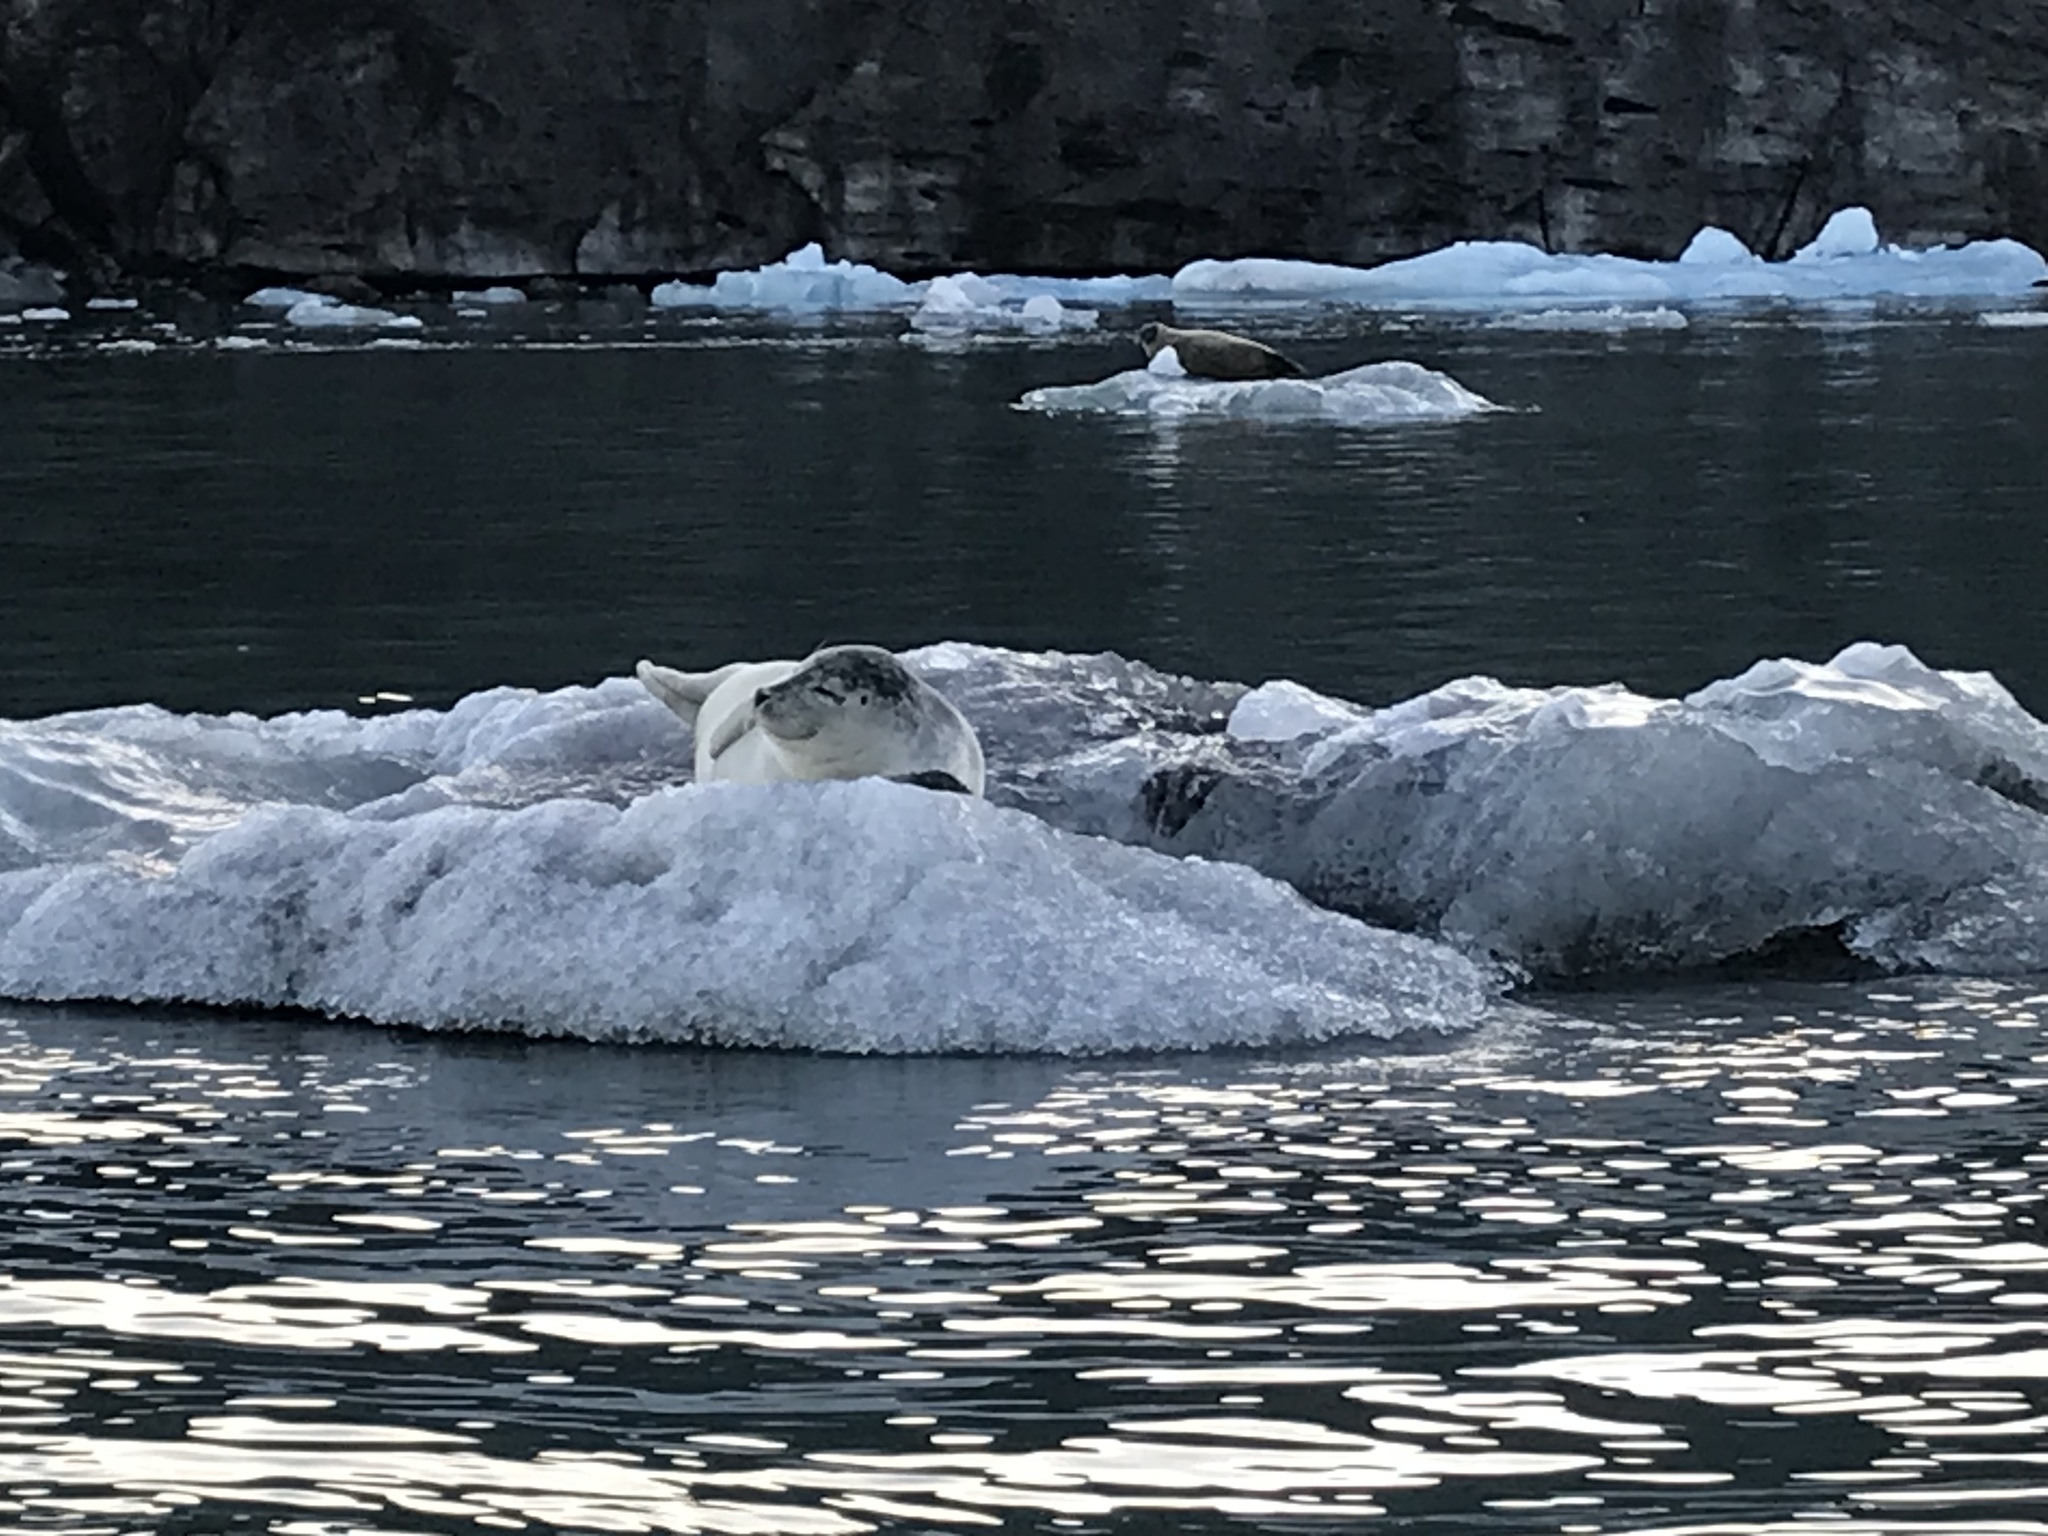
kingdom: Animalia
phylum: Chordata
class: Mammalia
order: Carnivora
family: Phocidae
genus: Phoca
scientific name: Phoca vitulina
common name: Harbor seal
